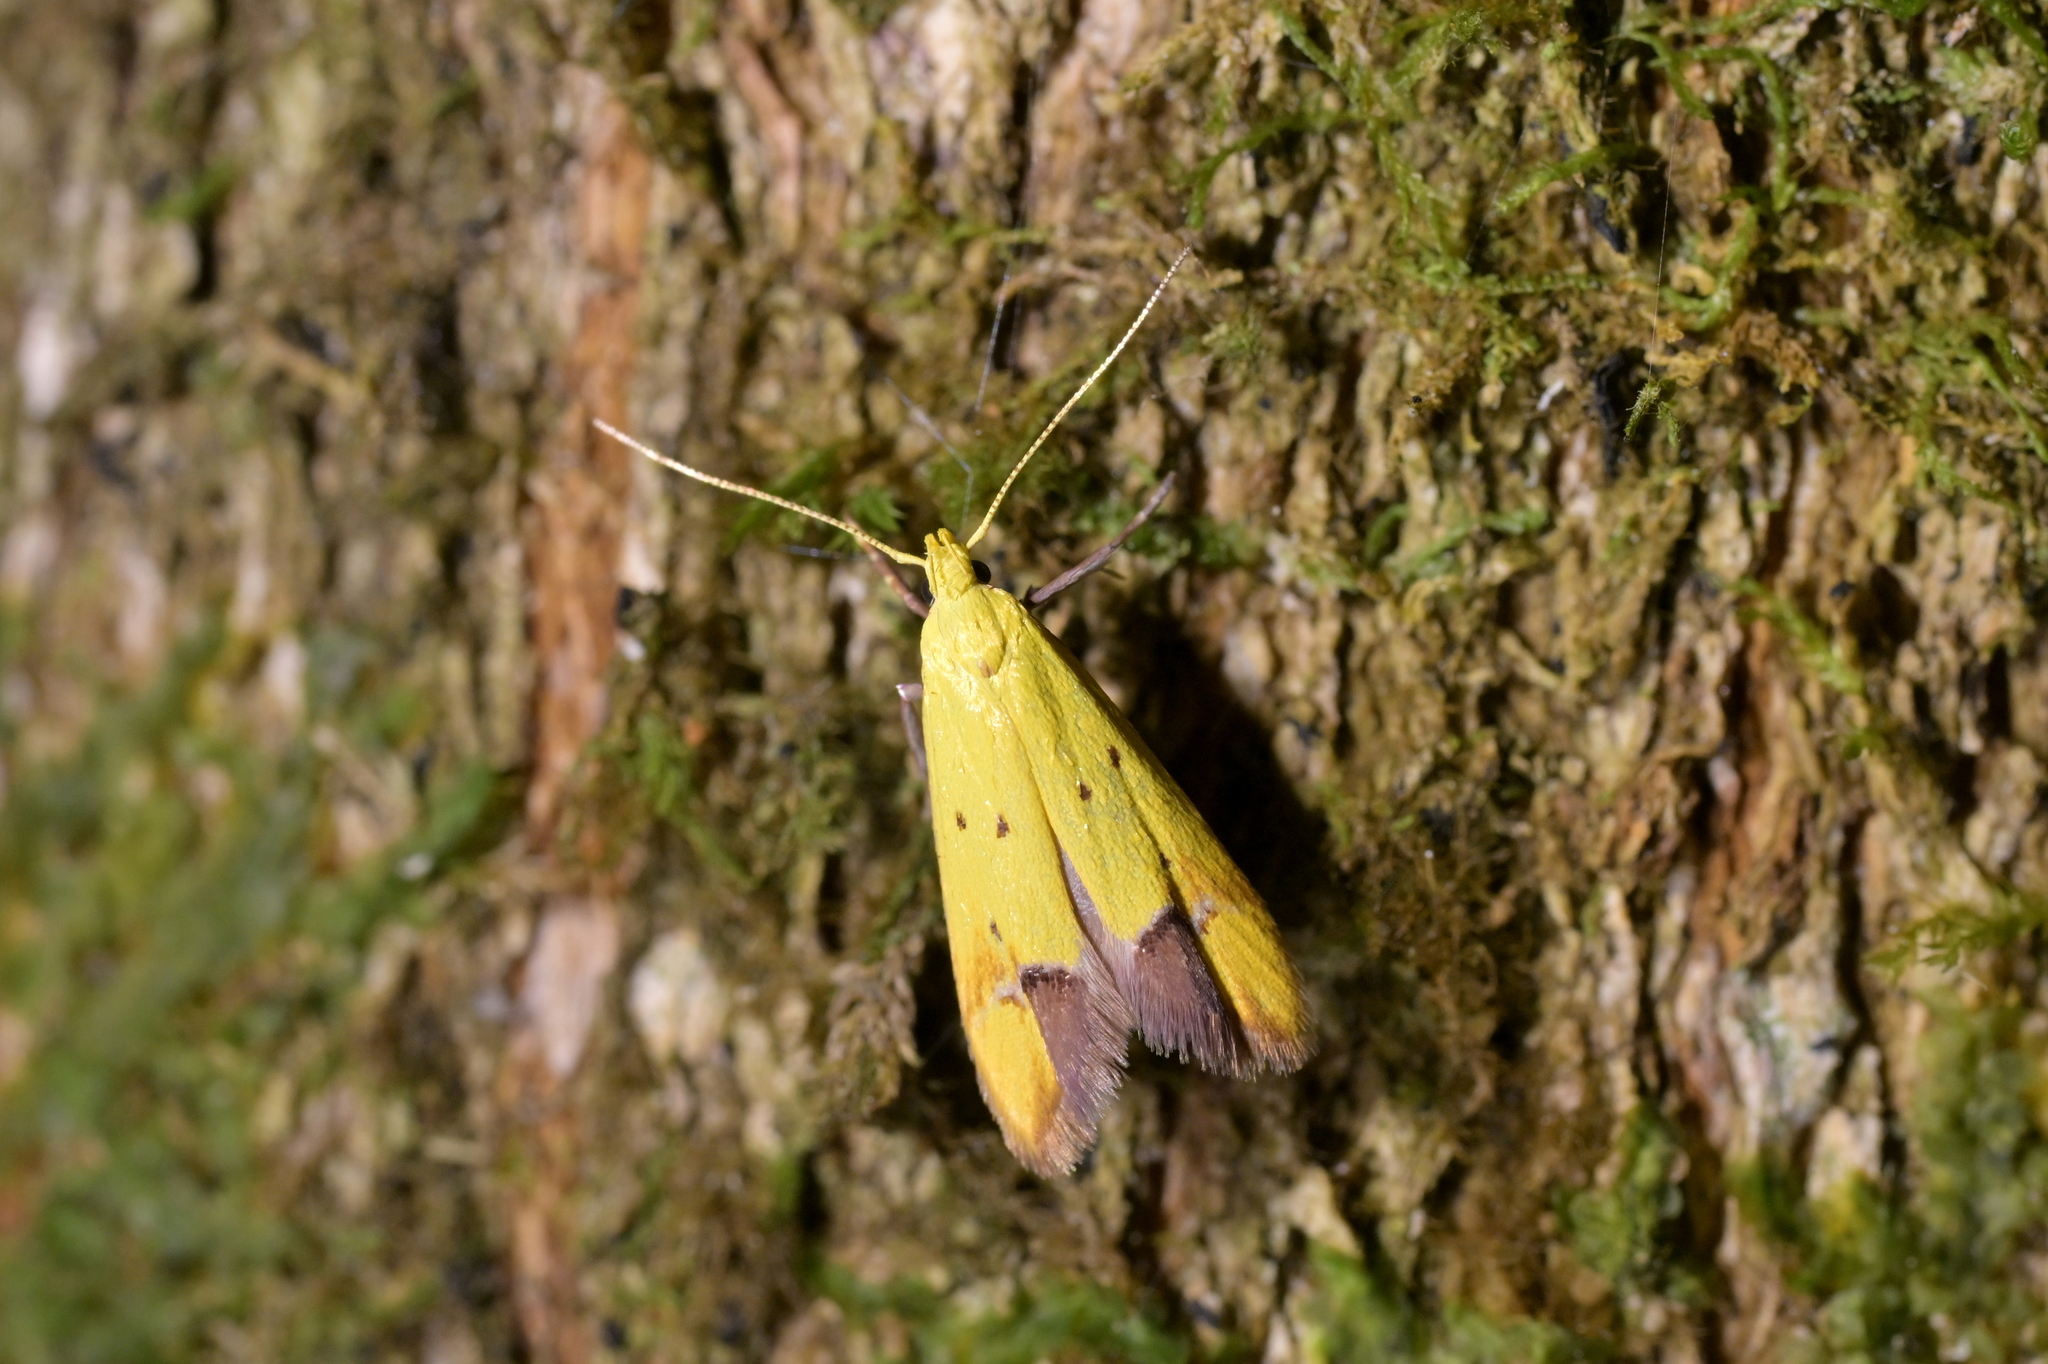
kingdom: Animalia
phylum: Arthropoda
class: Insecta
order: Lepidoptera
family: Oecophoridae
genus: Gymnobathra
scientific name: Gymnobathra flavidella
